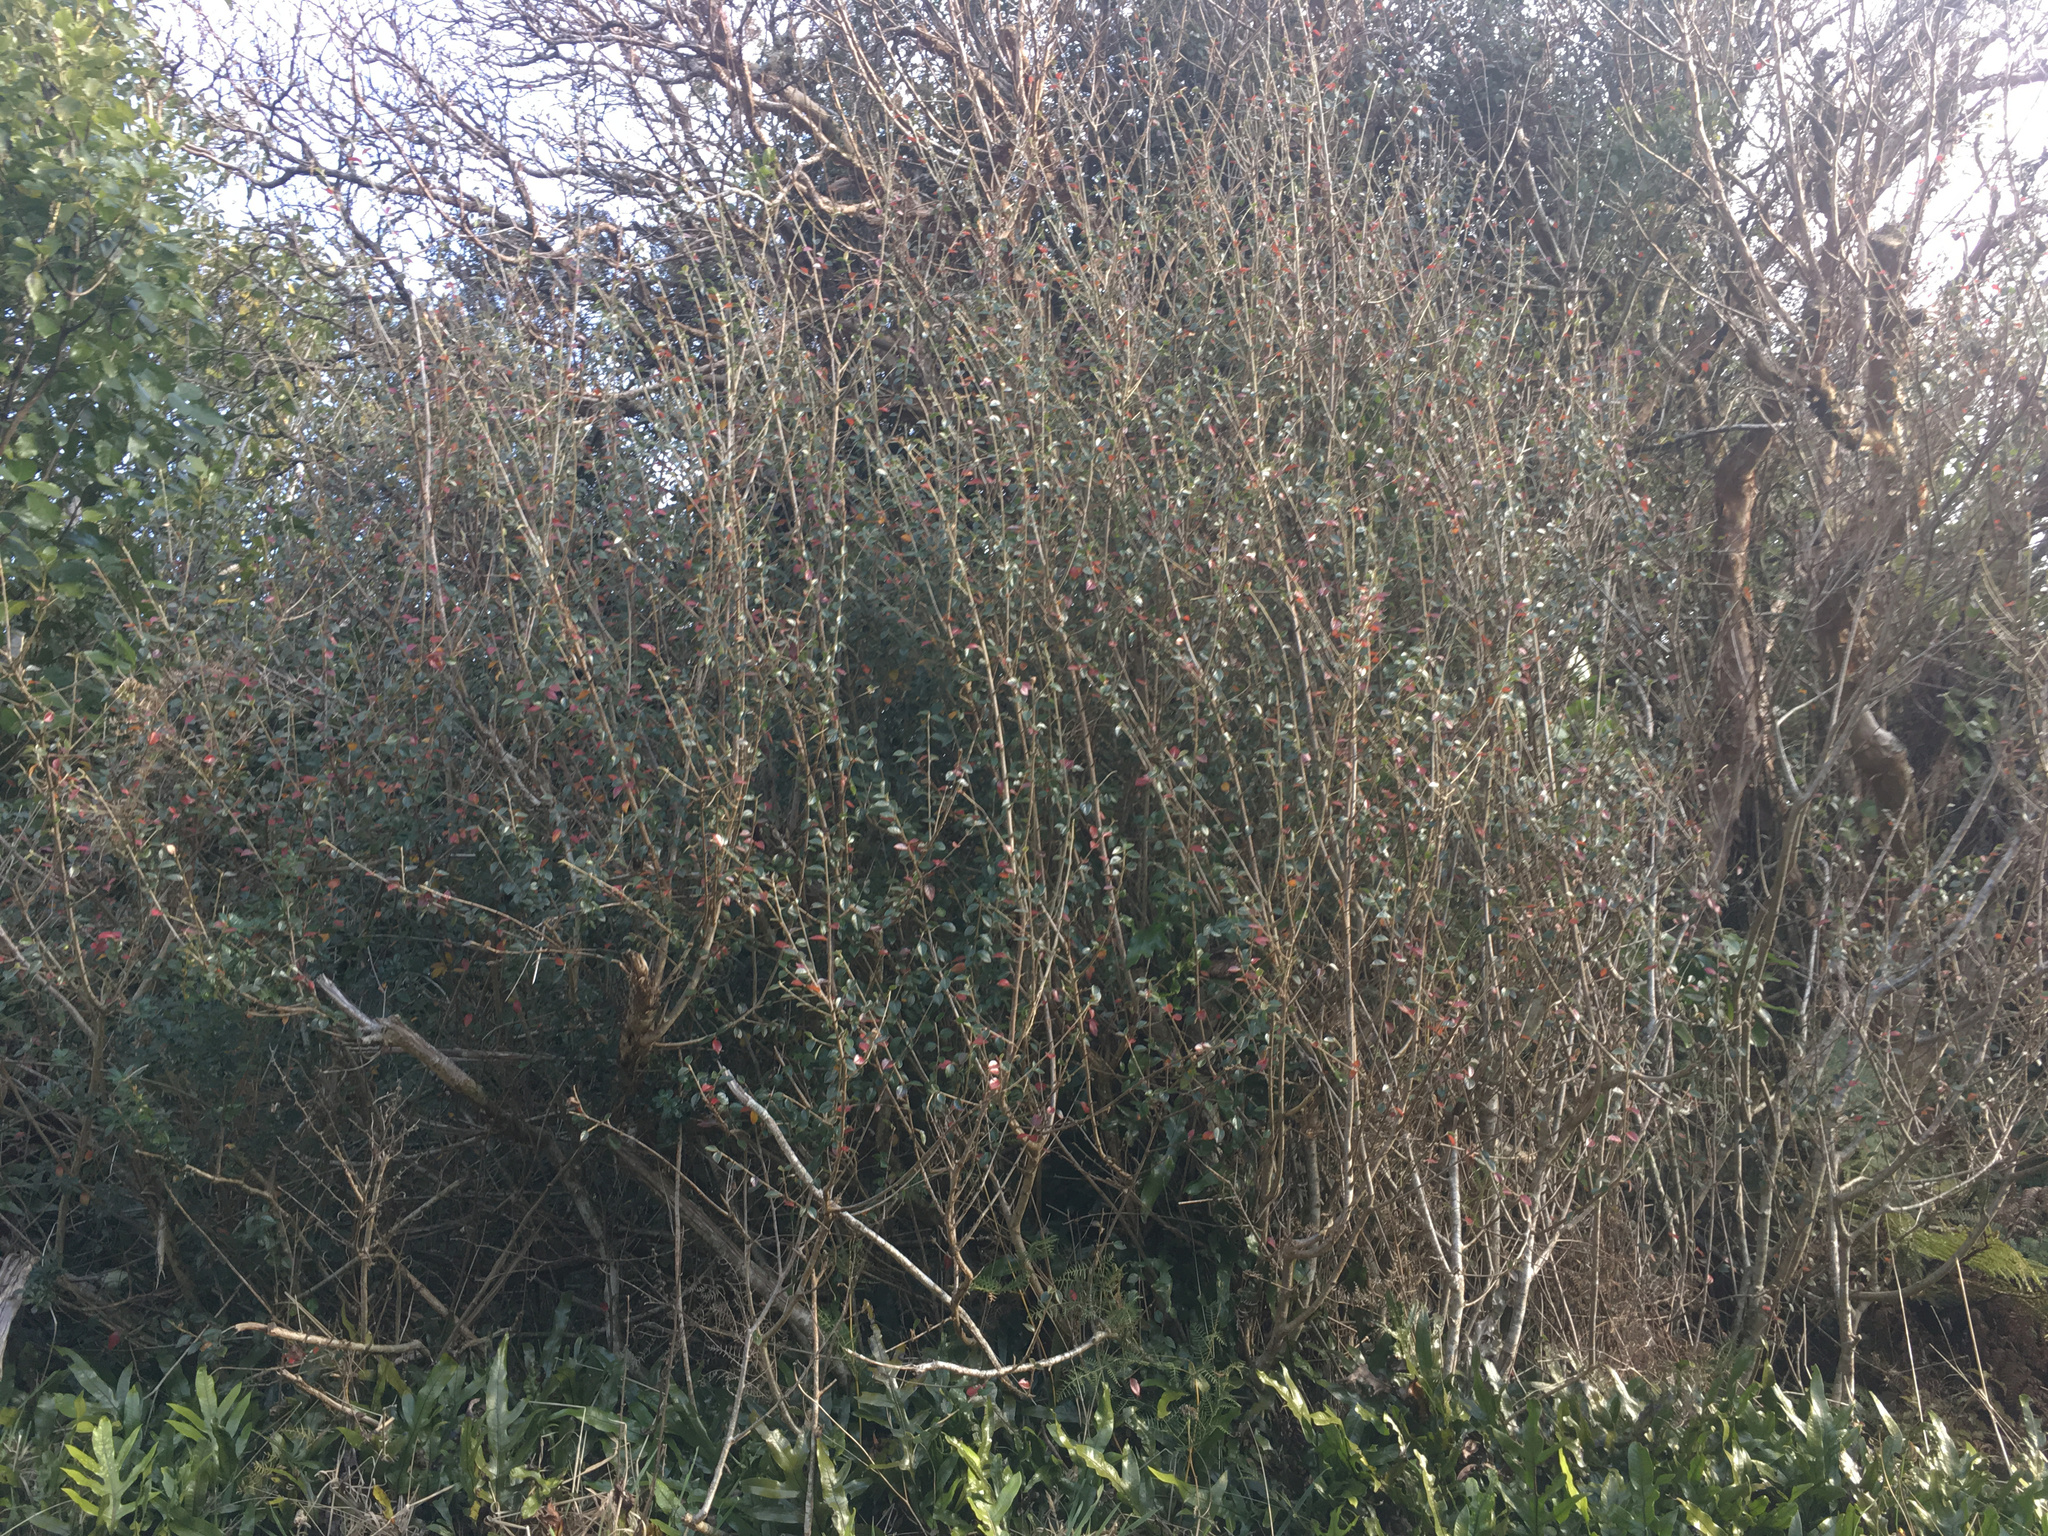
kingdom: Plantae
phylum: Tracheophyta
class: Magnoliopsida
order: Rosales
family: Rosaceae
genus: Cotoneaster
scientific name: Cotoneaster simonsii
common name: Himalayan cotoneaster
